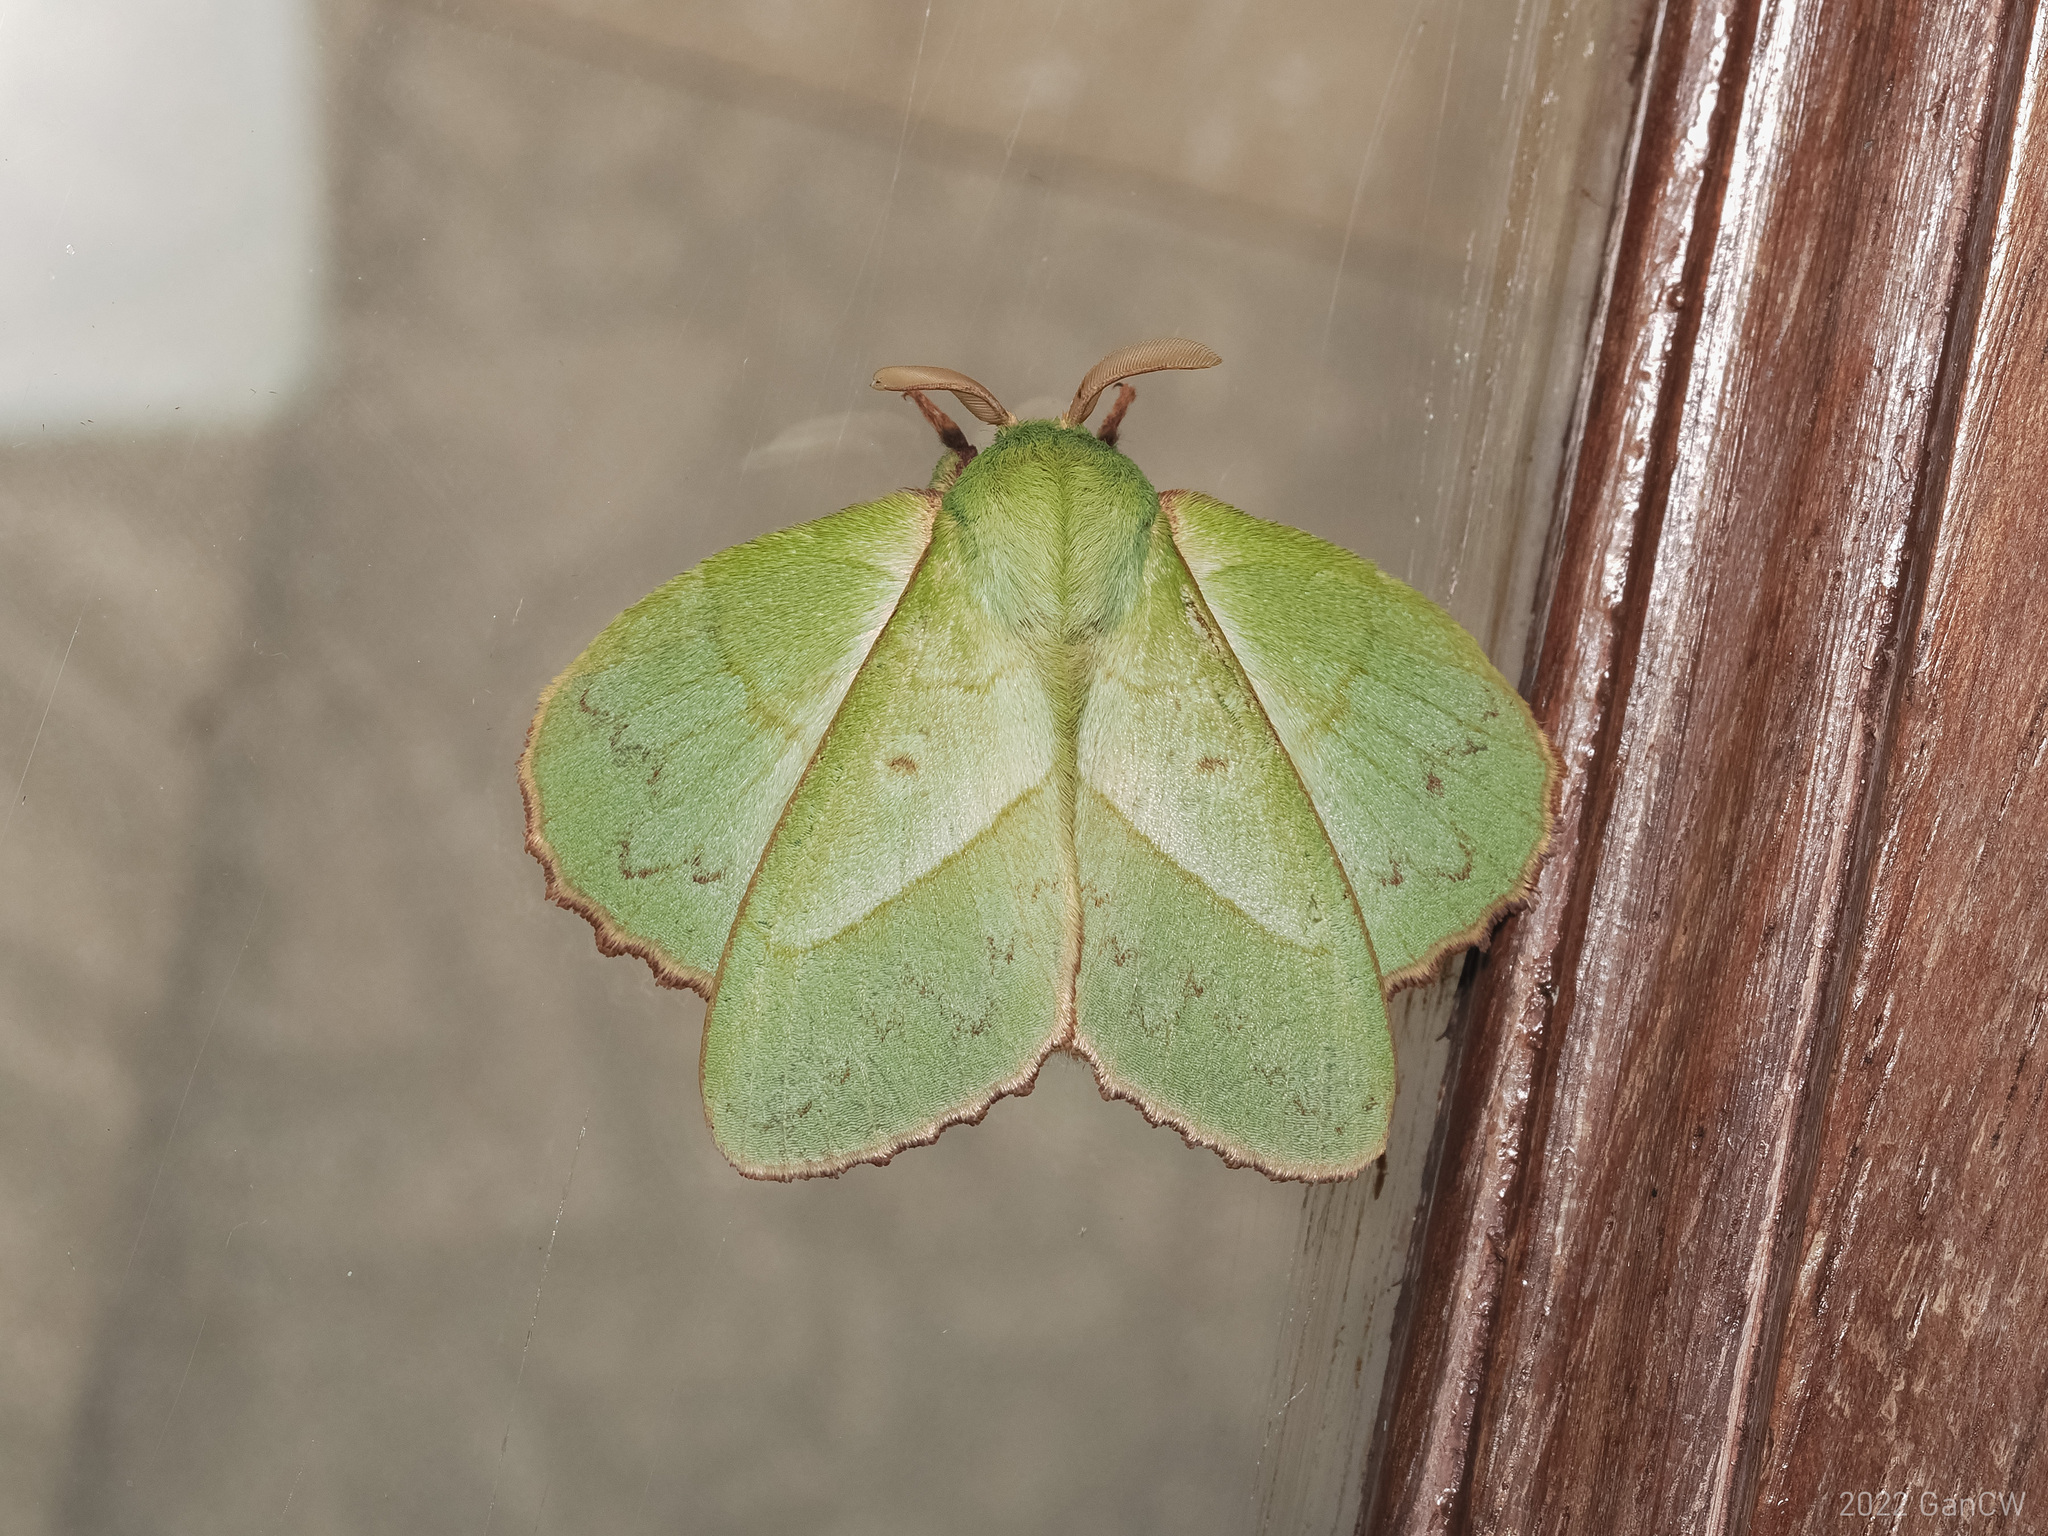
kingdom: Animalia
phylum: Arthropoda
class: Insecta
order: Lepidoptera
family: Lasiocampidae
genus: Trabala
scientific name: Trabala ganesha
